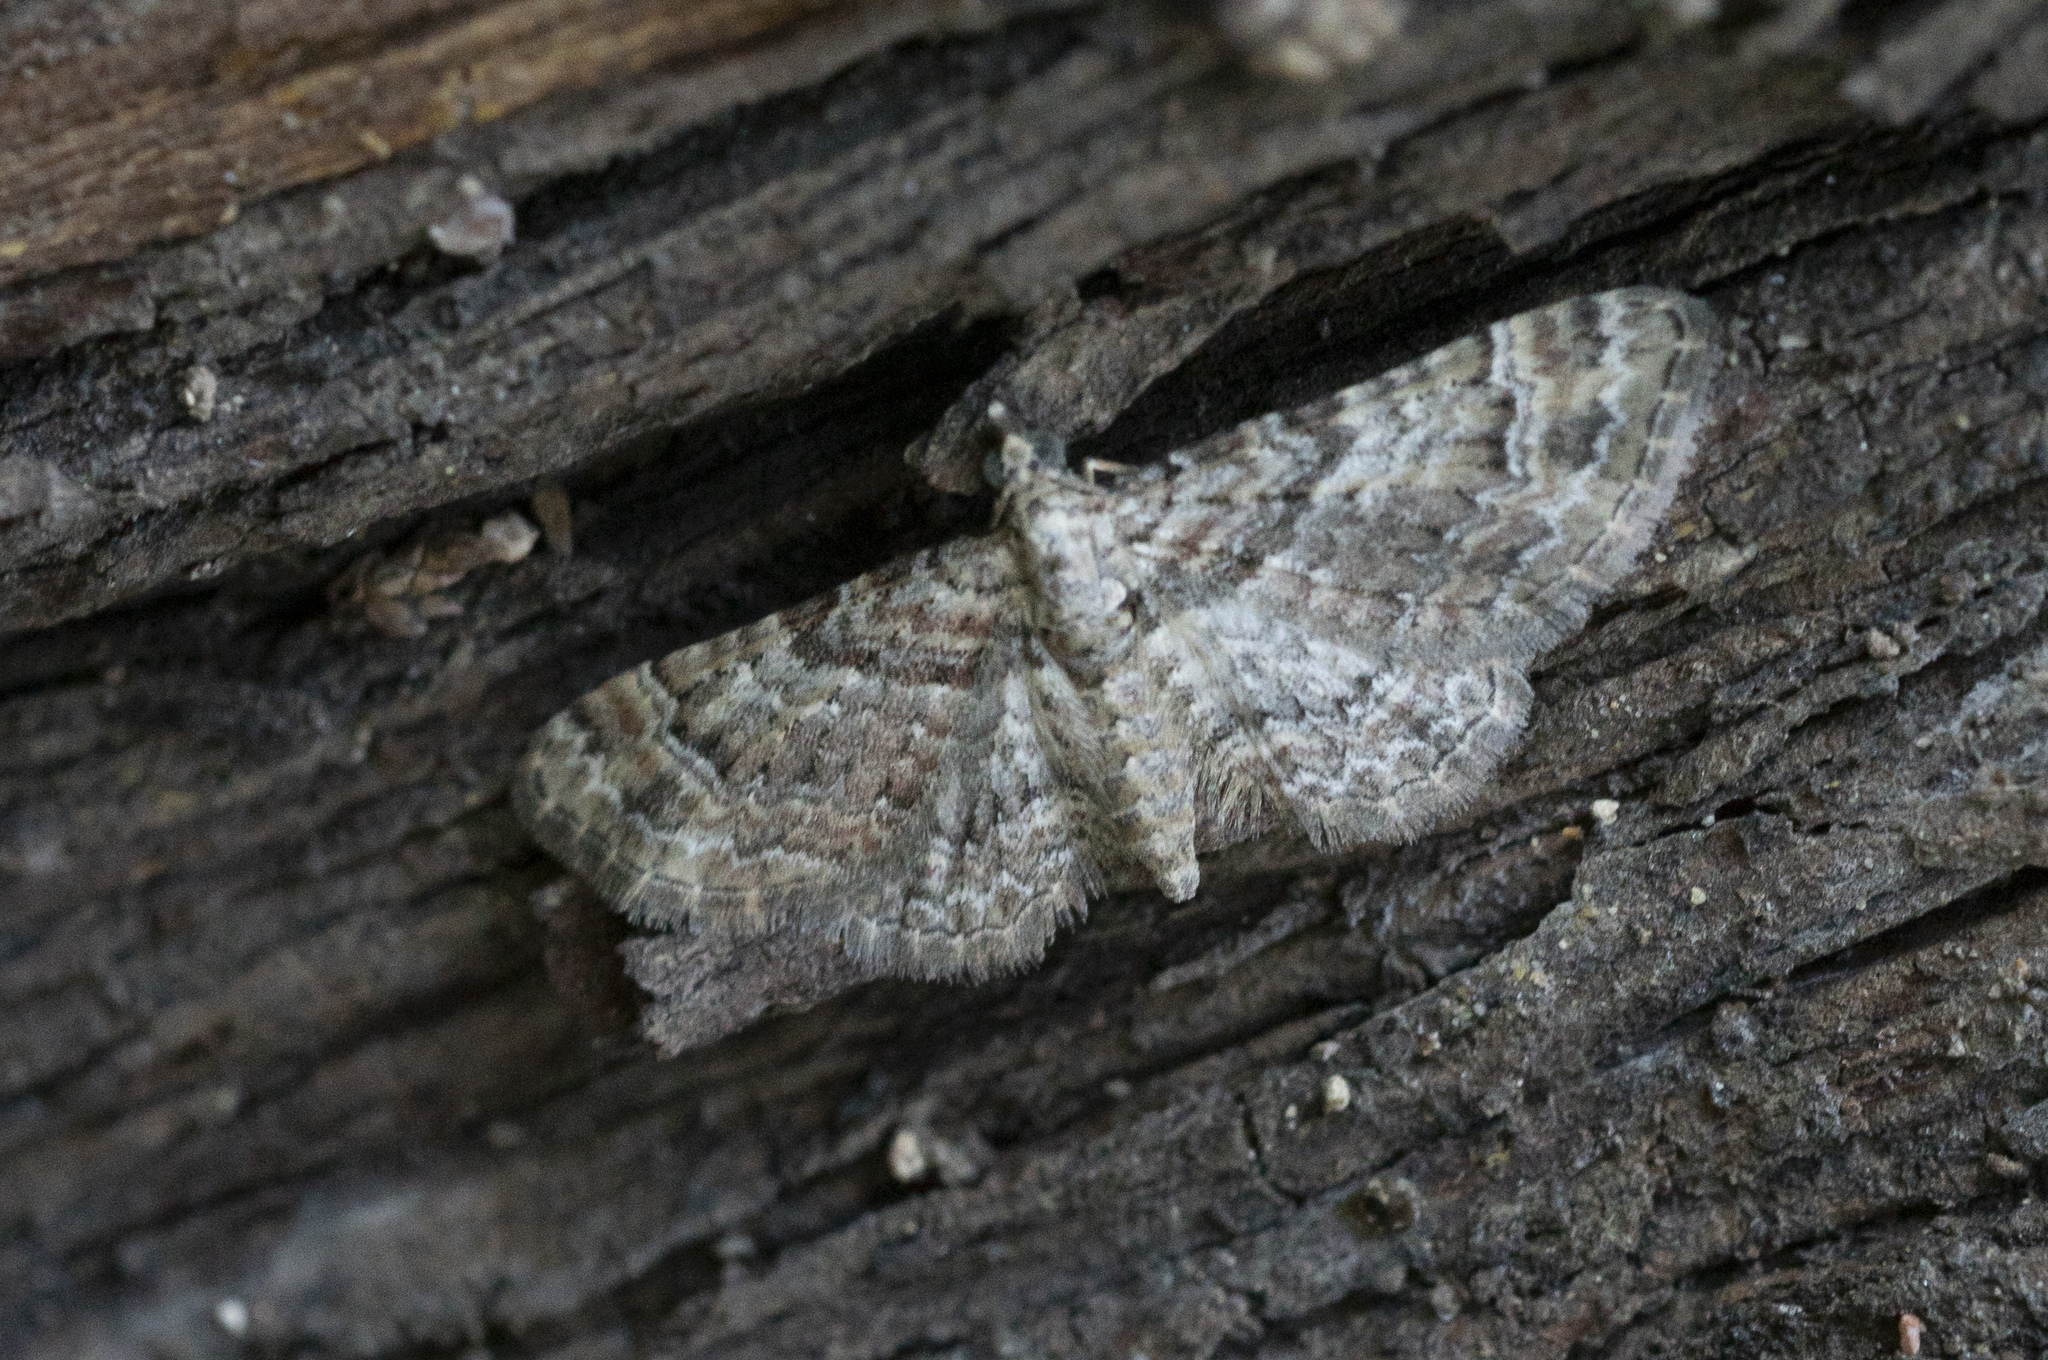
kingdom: Animalia
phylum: Arthropoda
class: Insecta
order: Lepidoptera
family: Geometridae
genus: Gymnoscelis
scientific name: Gymnoscelis rufifasciata
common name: Double-striped pug
